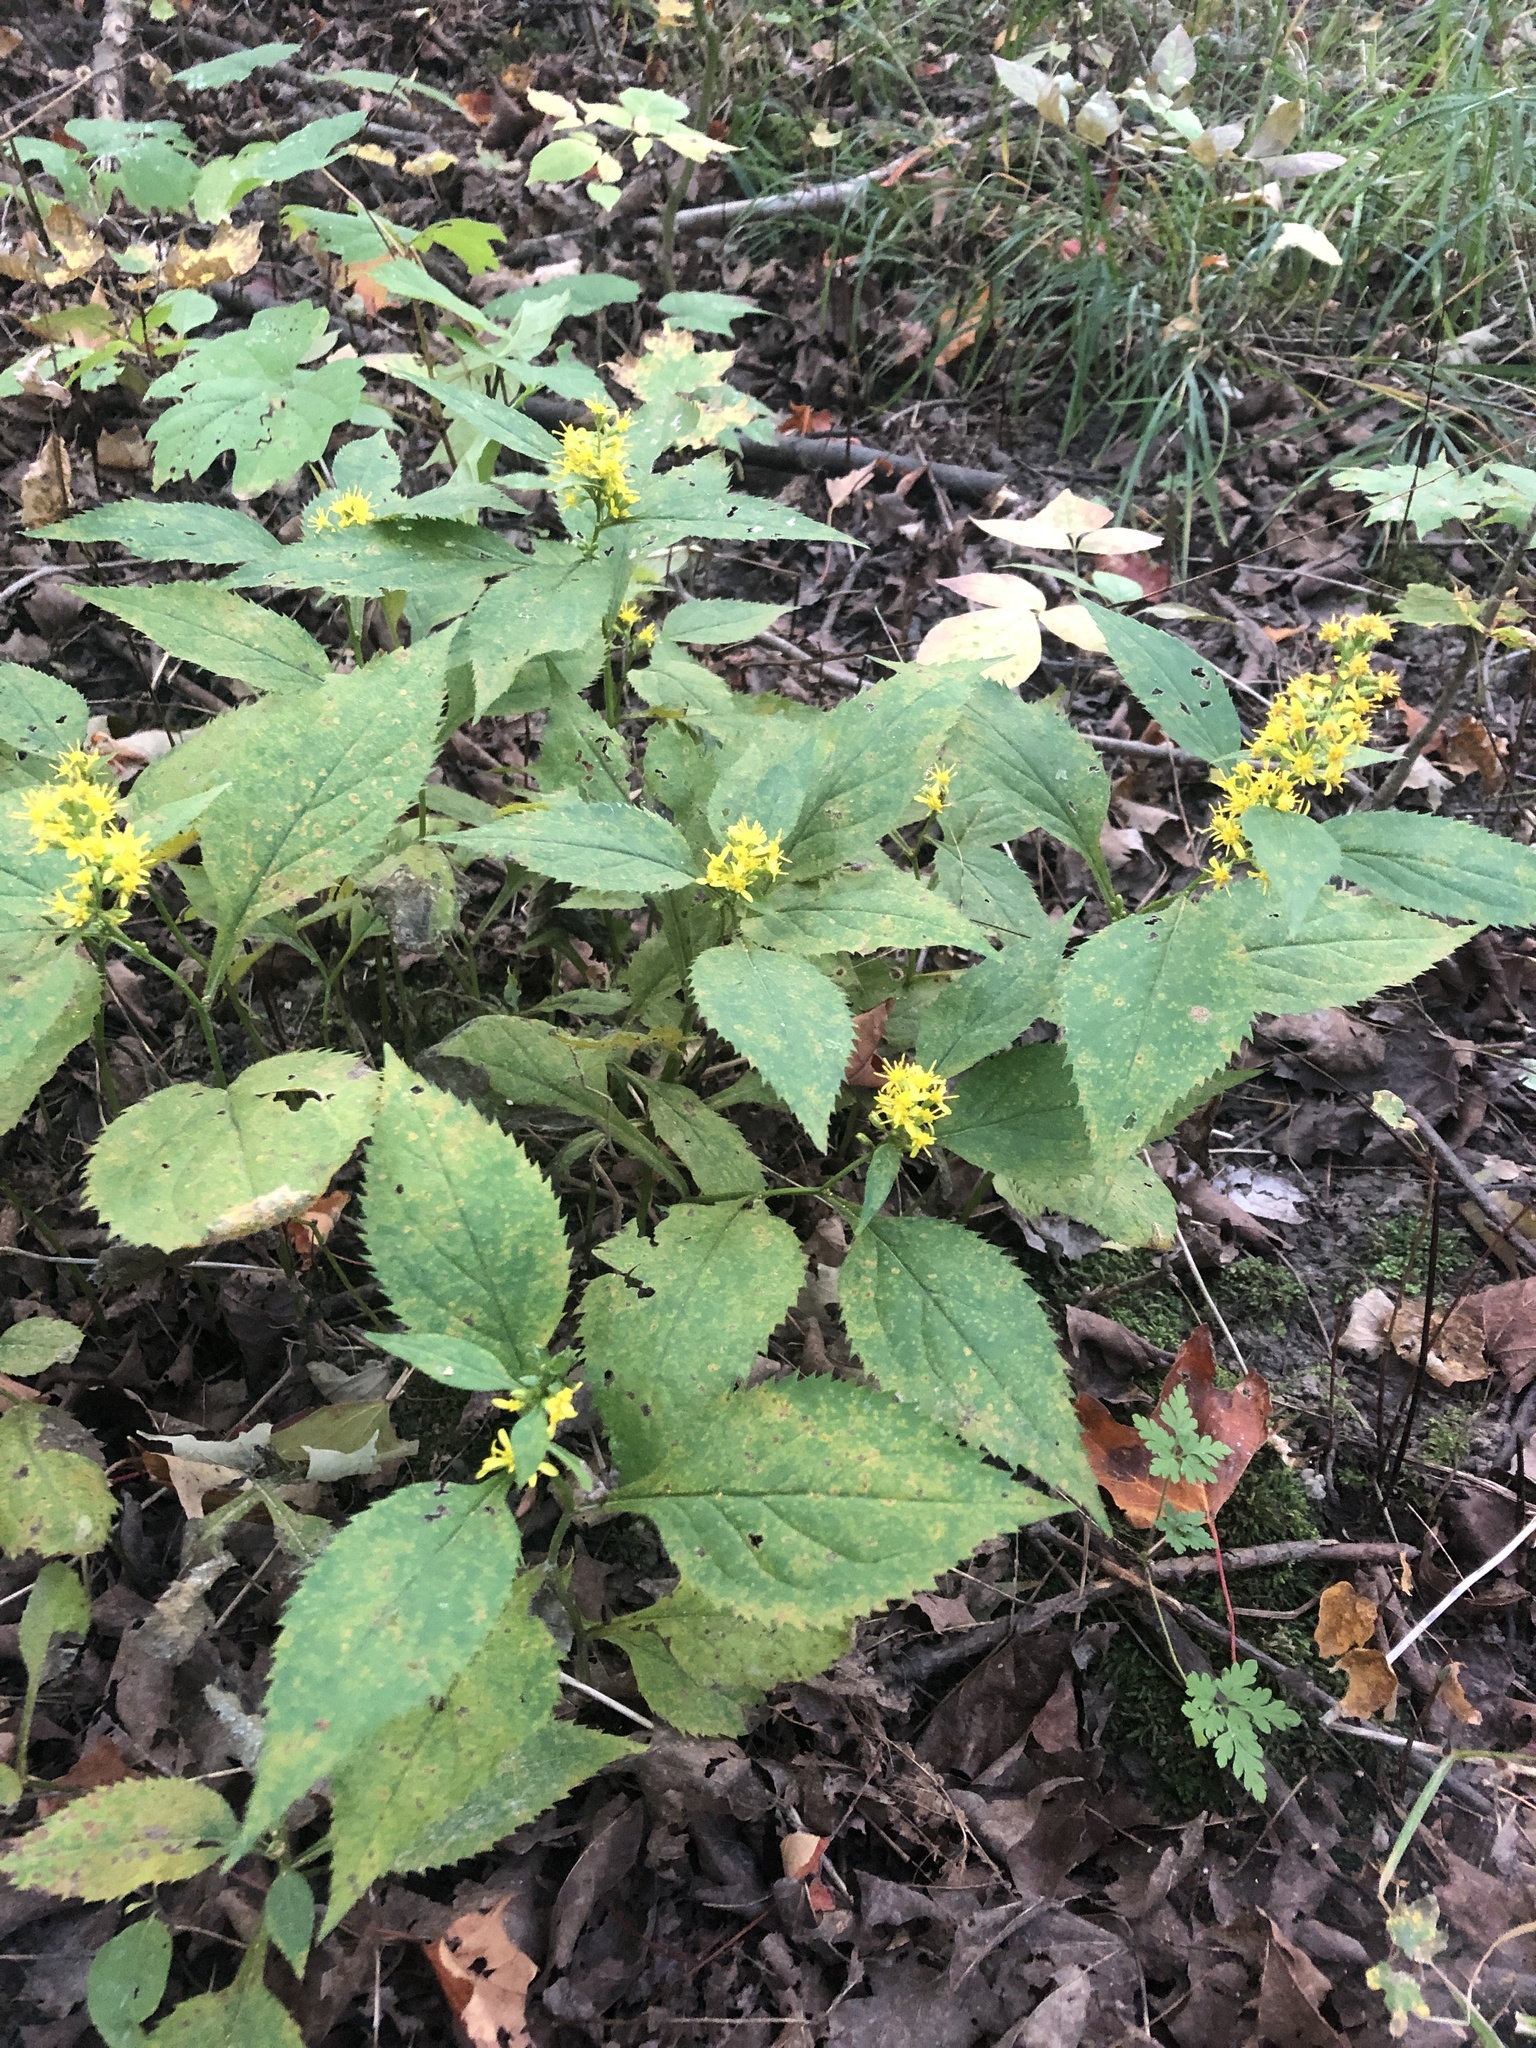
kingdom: Plantae
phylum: Tracheophyta
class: Magnoliopsida
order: Asterales
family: Asteraceae
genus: Solidago
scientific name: Solidago flexicaulis
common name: Zig-zag goldenrod
